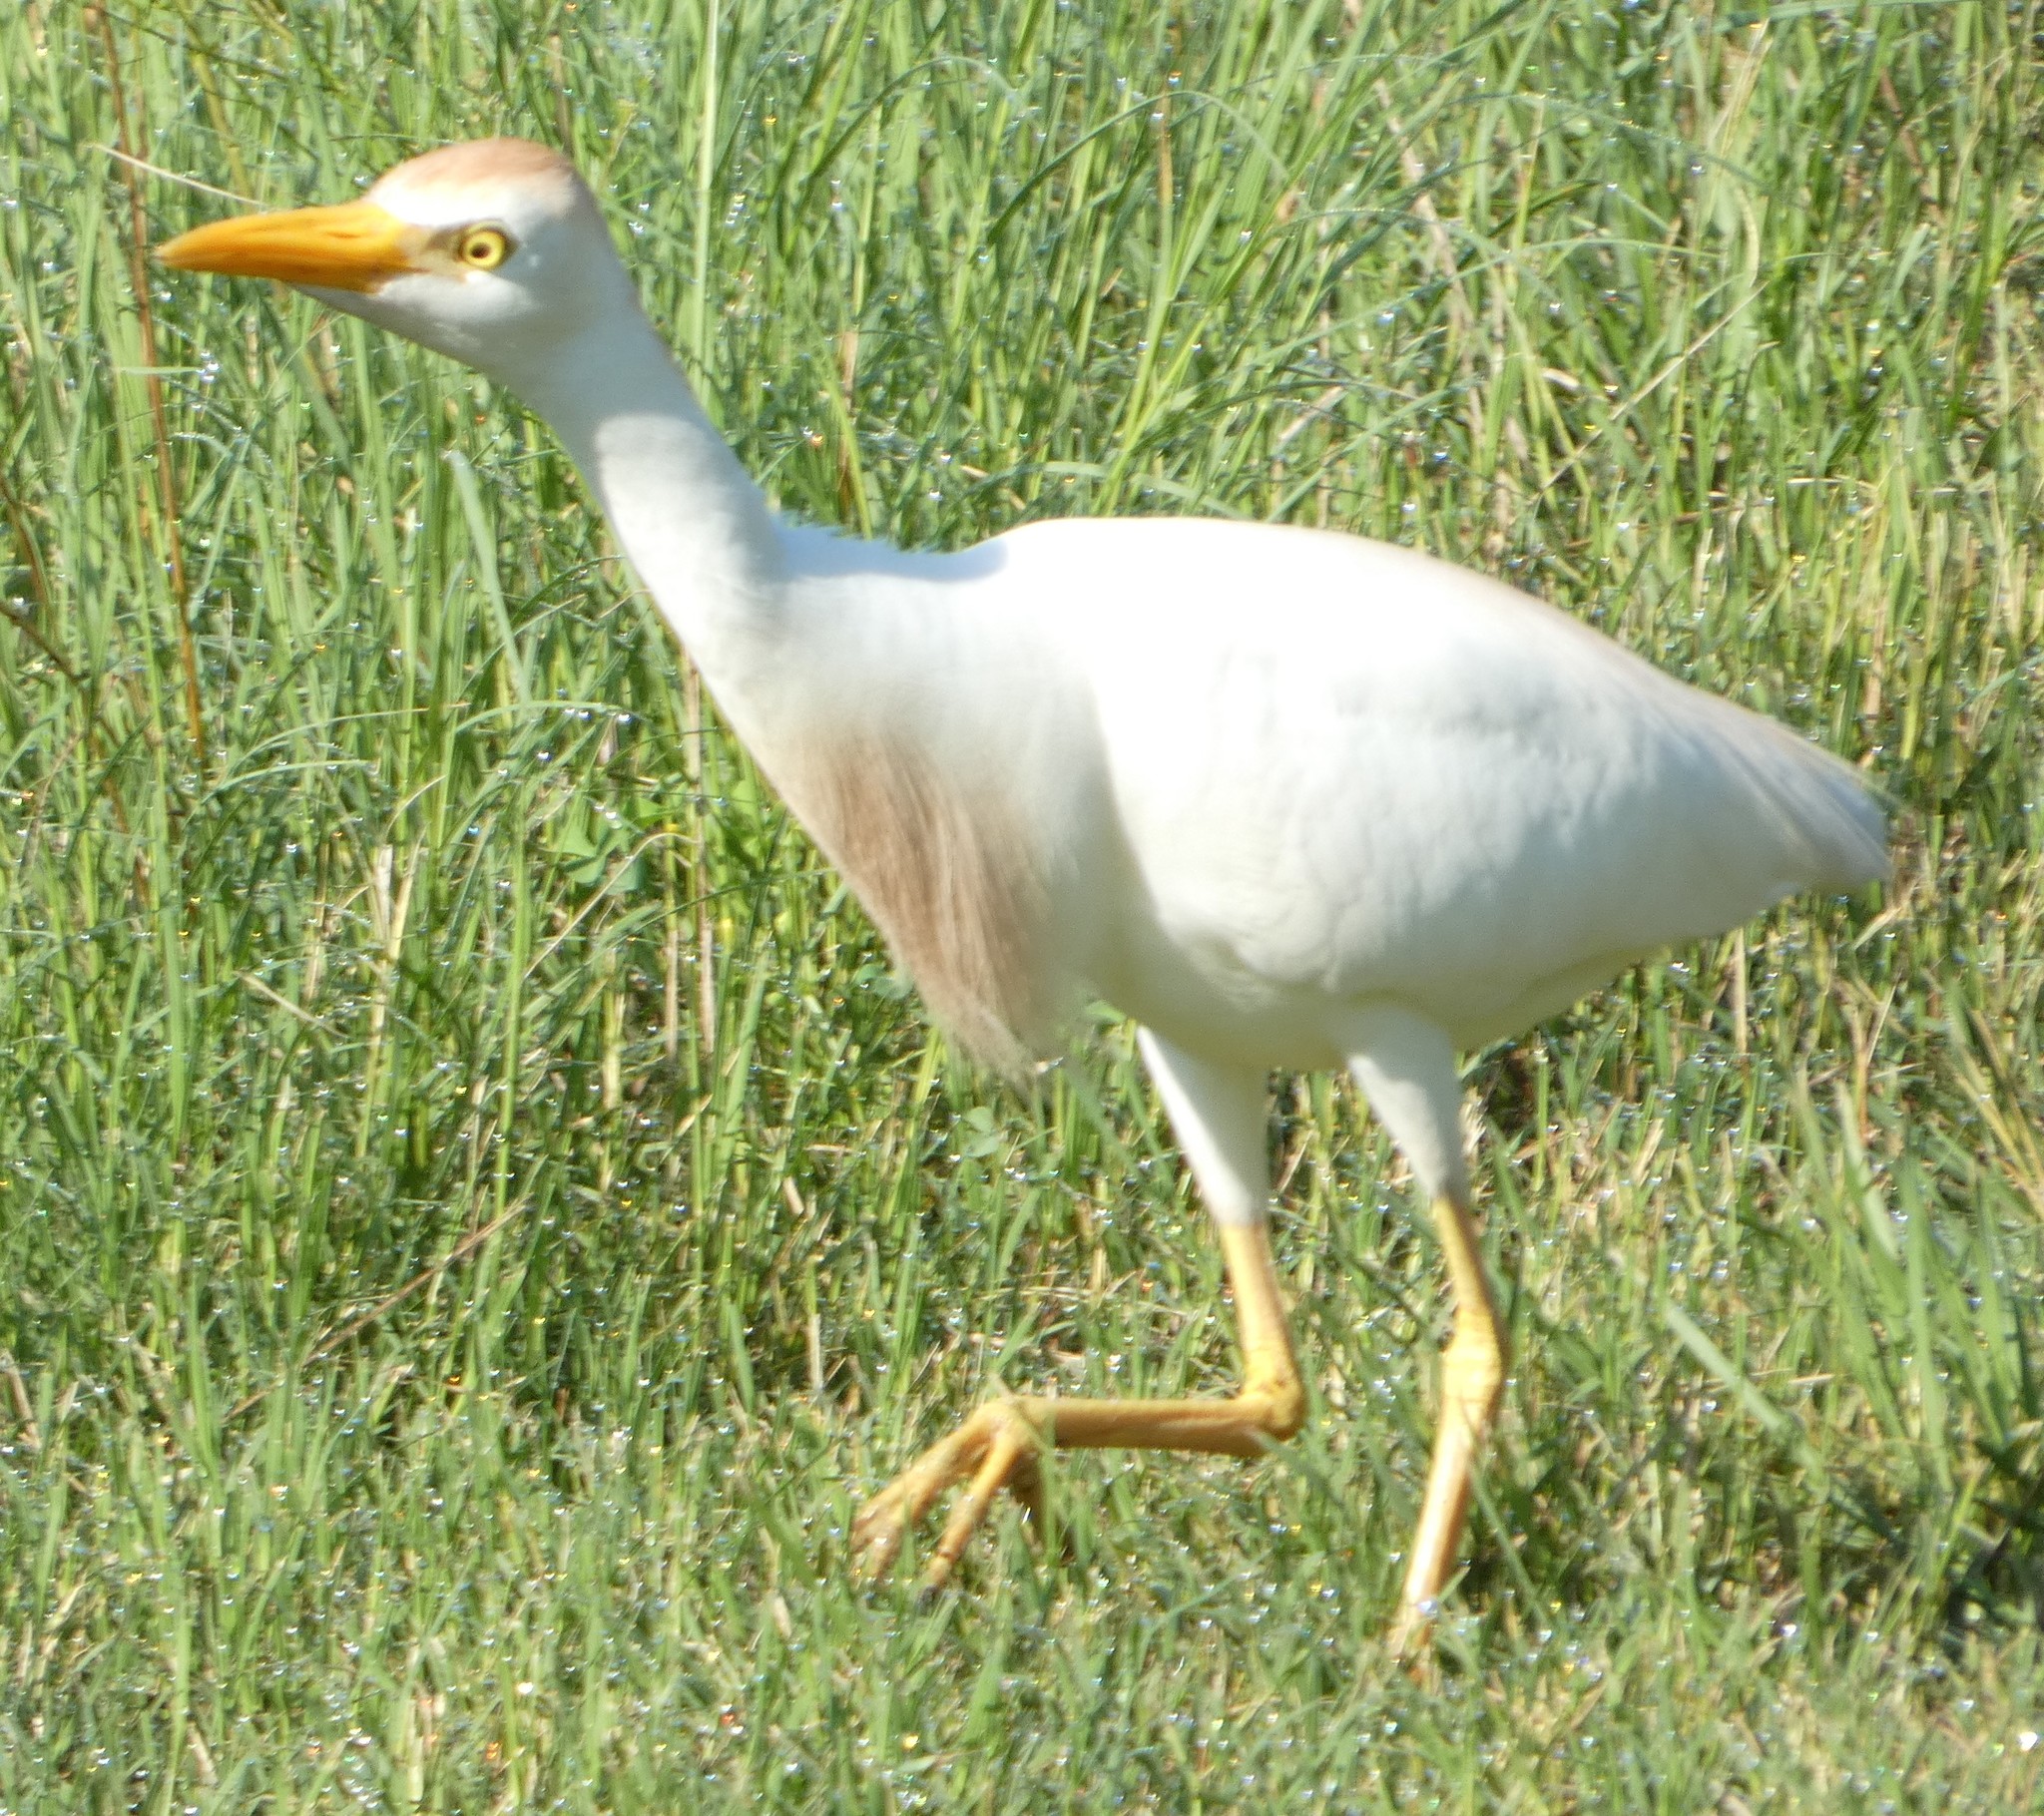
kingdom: Animalia
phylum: Chordata
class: Aves
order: Pelecaniformes
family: Ardeidae
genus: Bubulcus
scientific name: Bubulcus ibis
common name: Cattle egret
